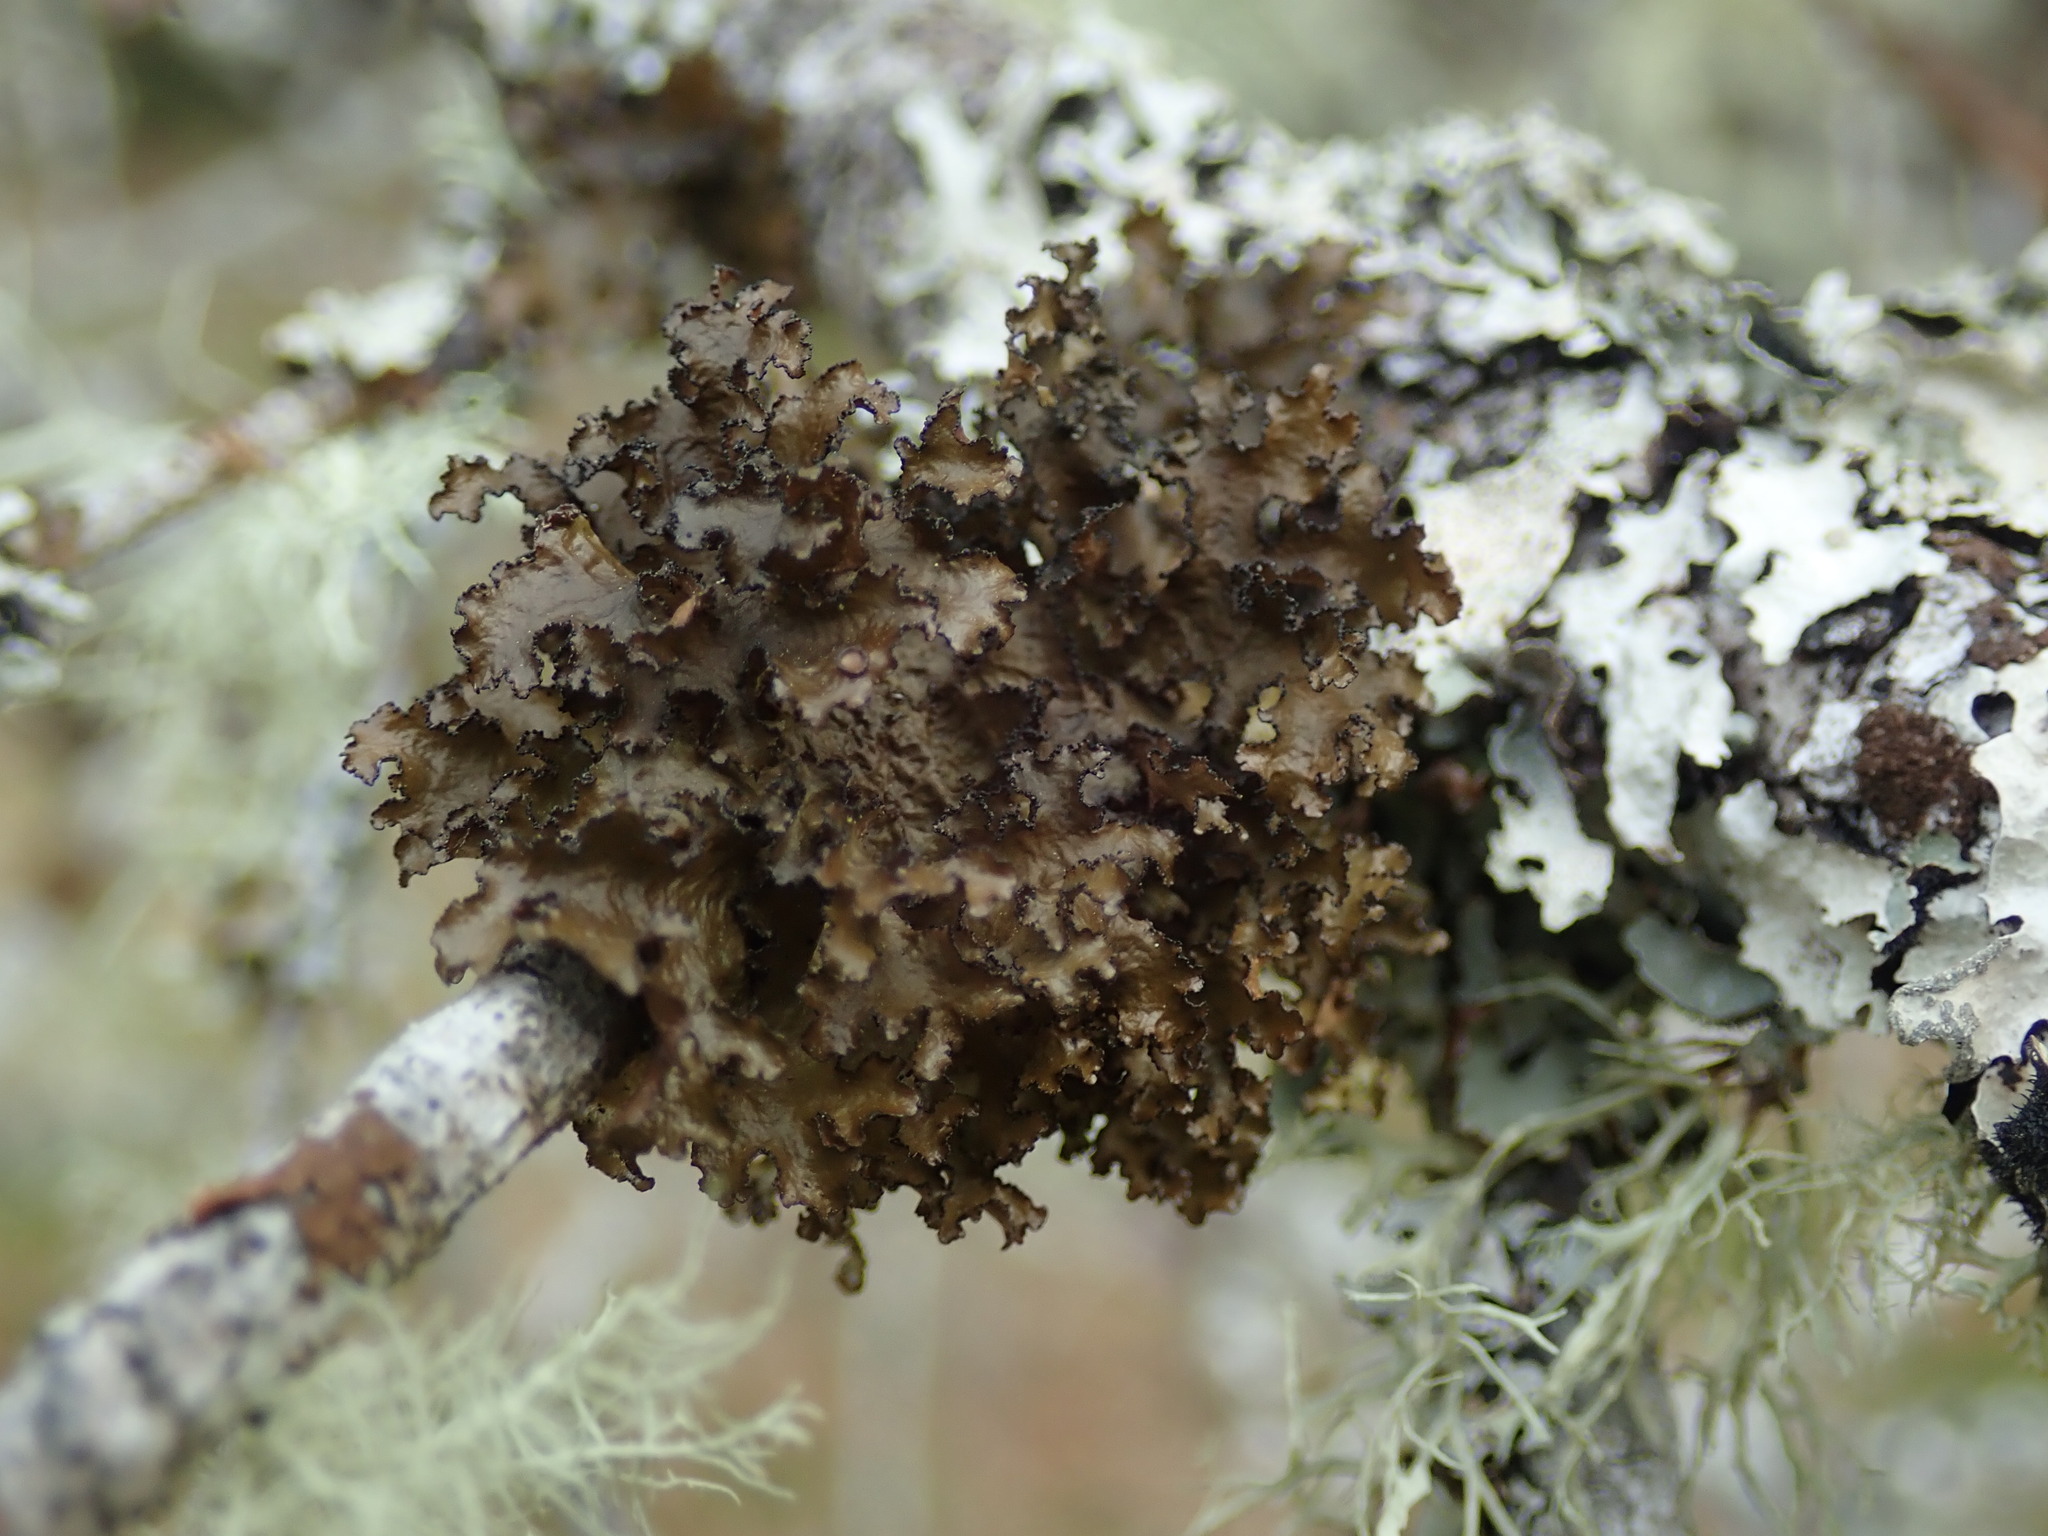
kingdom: Fungi
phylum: Ascomycota
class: Lecanoromycetes
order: Lecanorales
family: Parmeliaceae
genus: Nephromopsis
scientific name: Nephromopsis orbata
